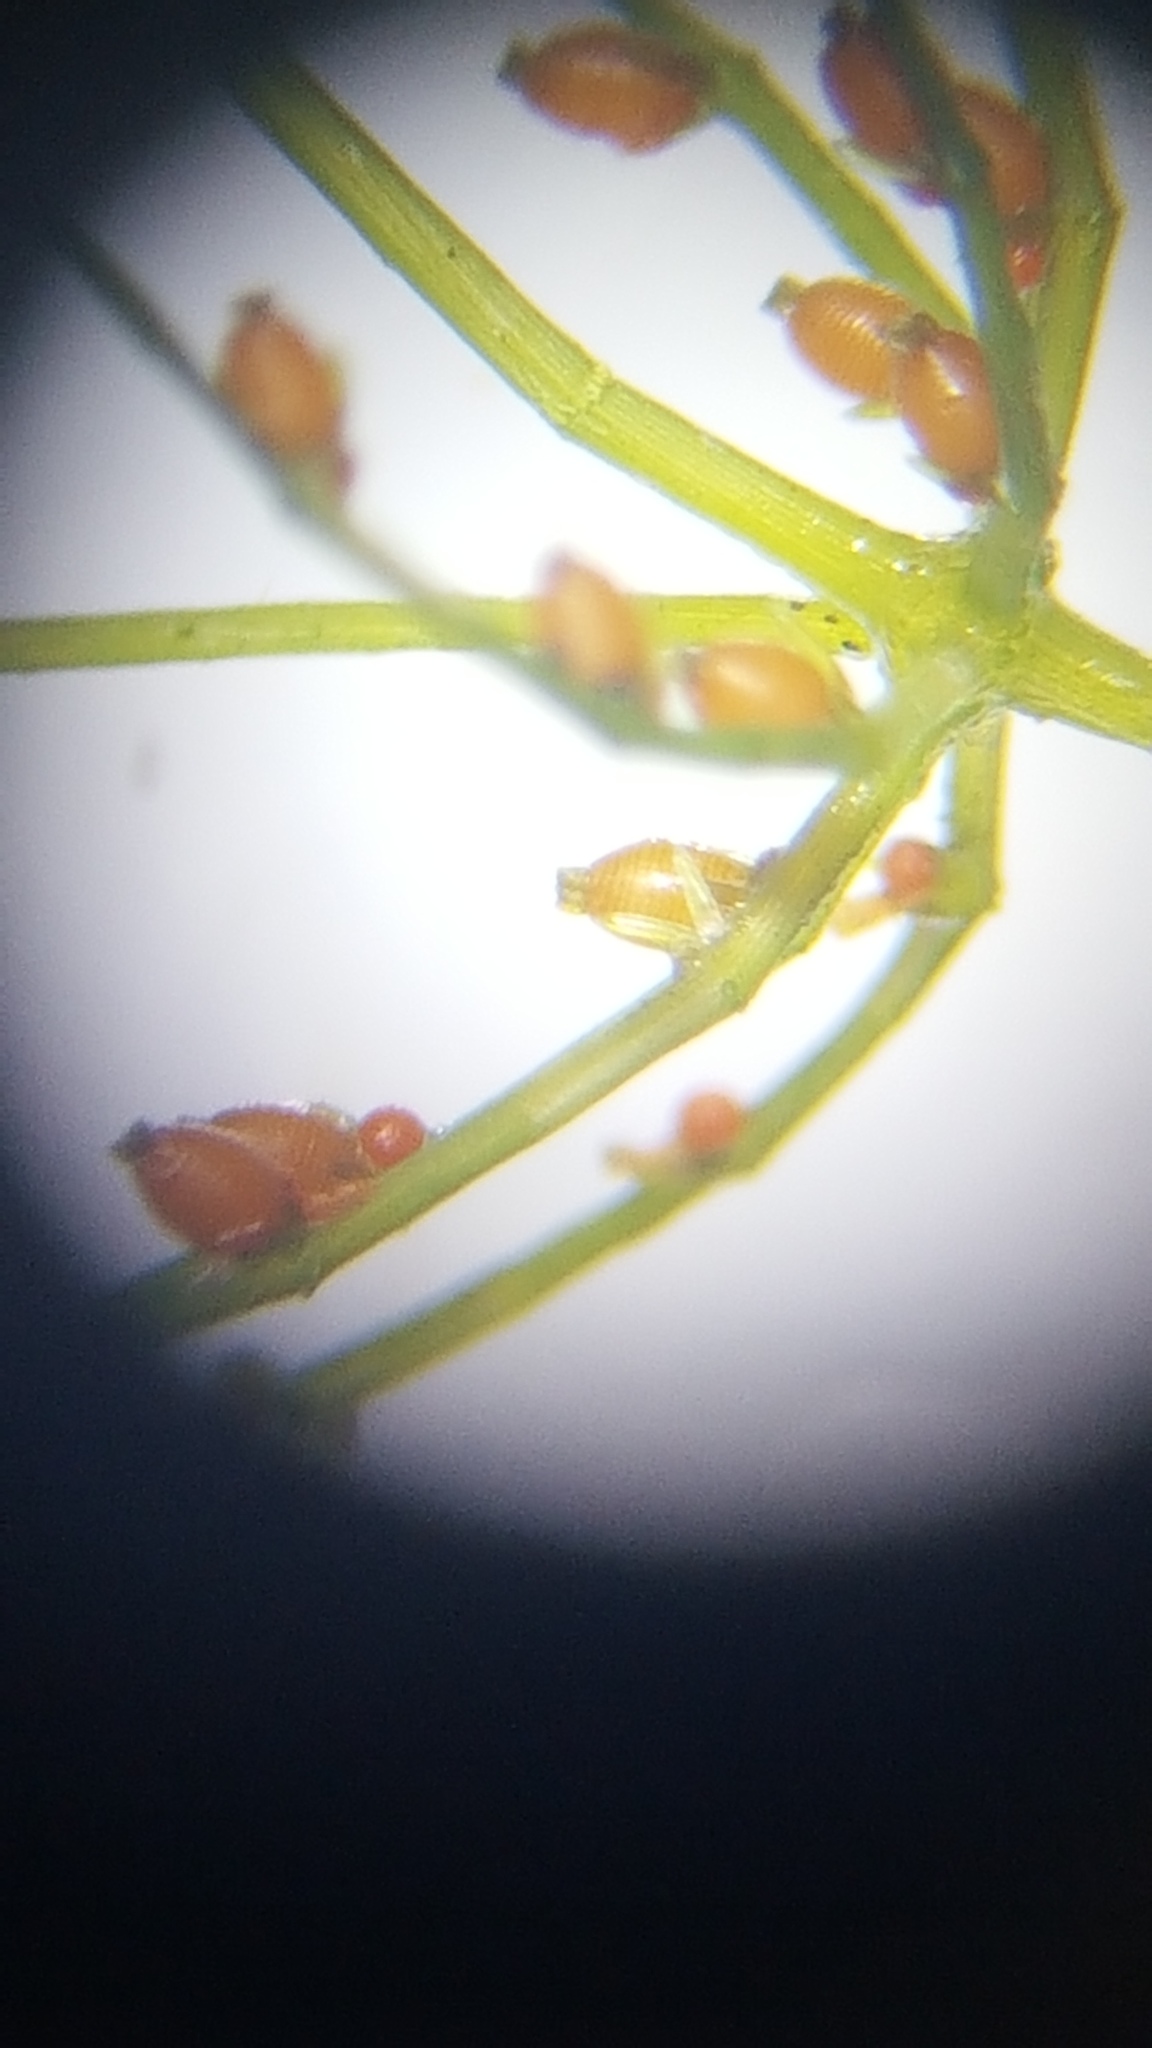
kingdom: Plantae
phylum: Charophyta
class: Charophyceae
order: Charales
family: Characeae
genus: Chara
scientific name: Chara globularis
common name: Fragile stonewort
